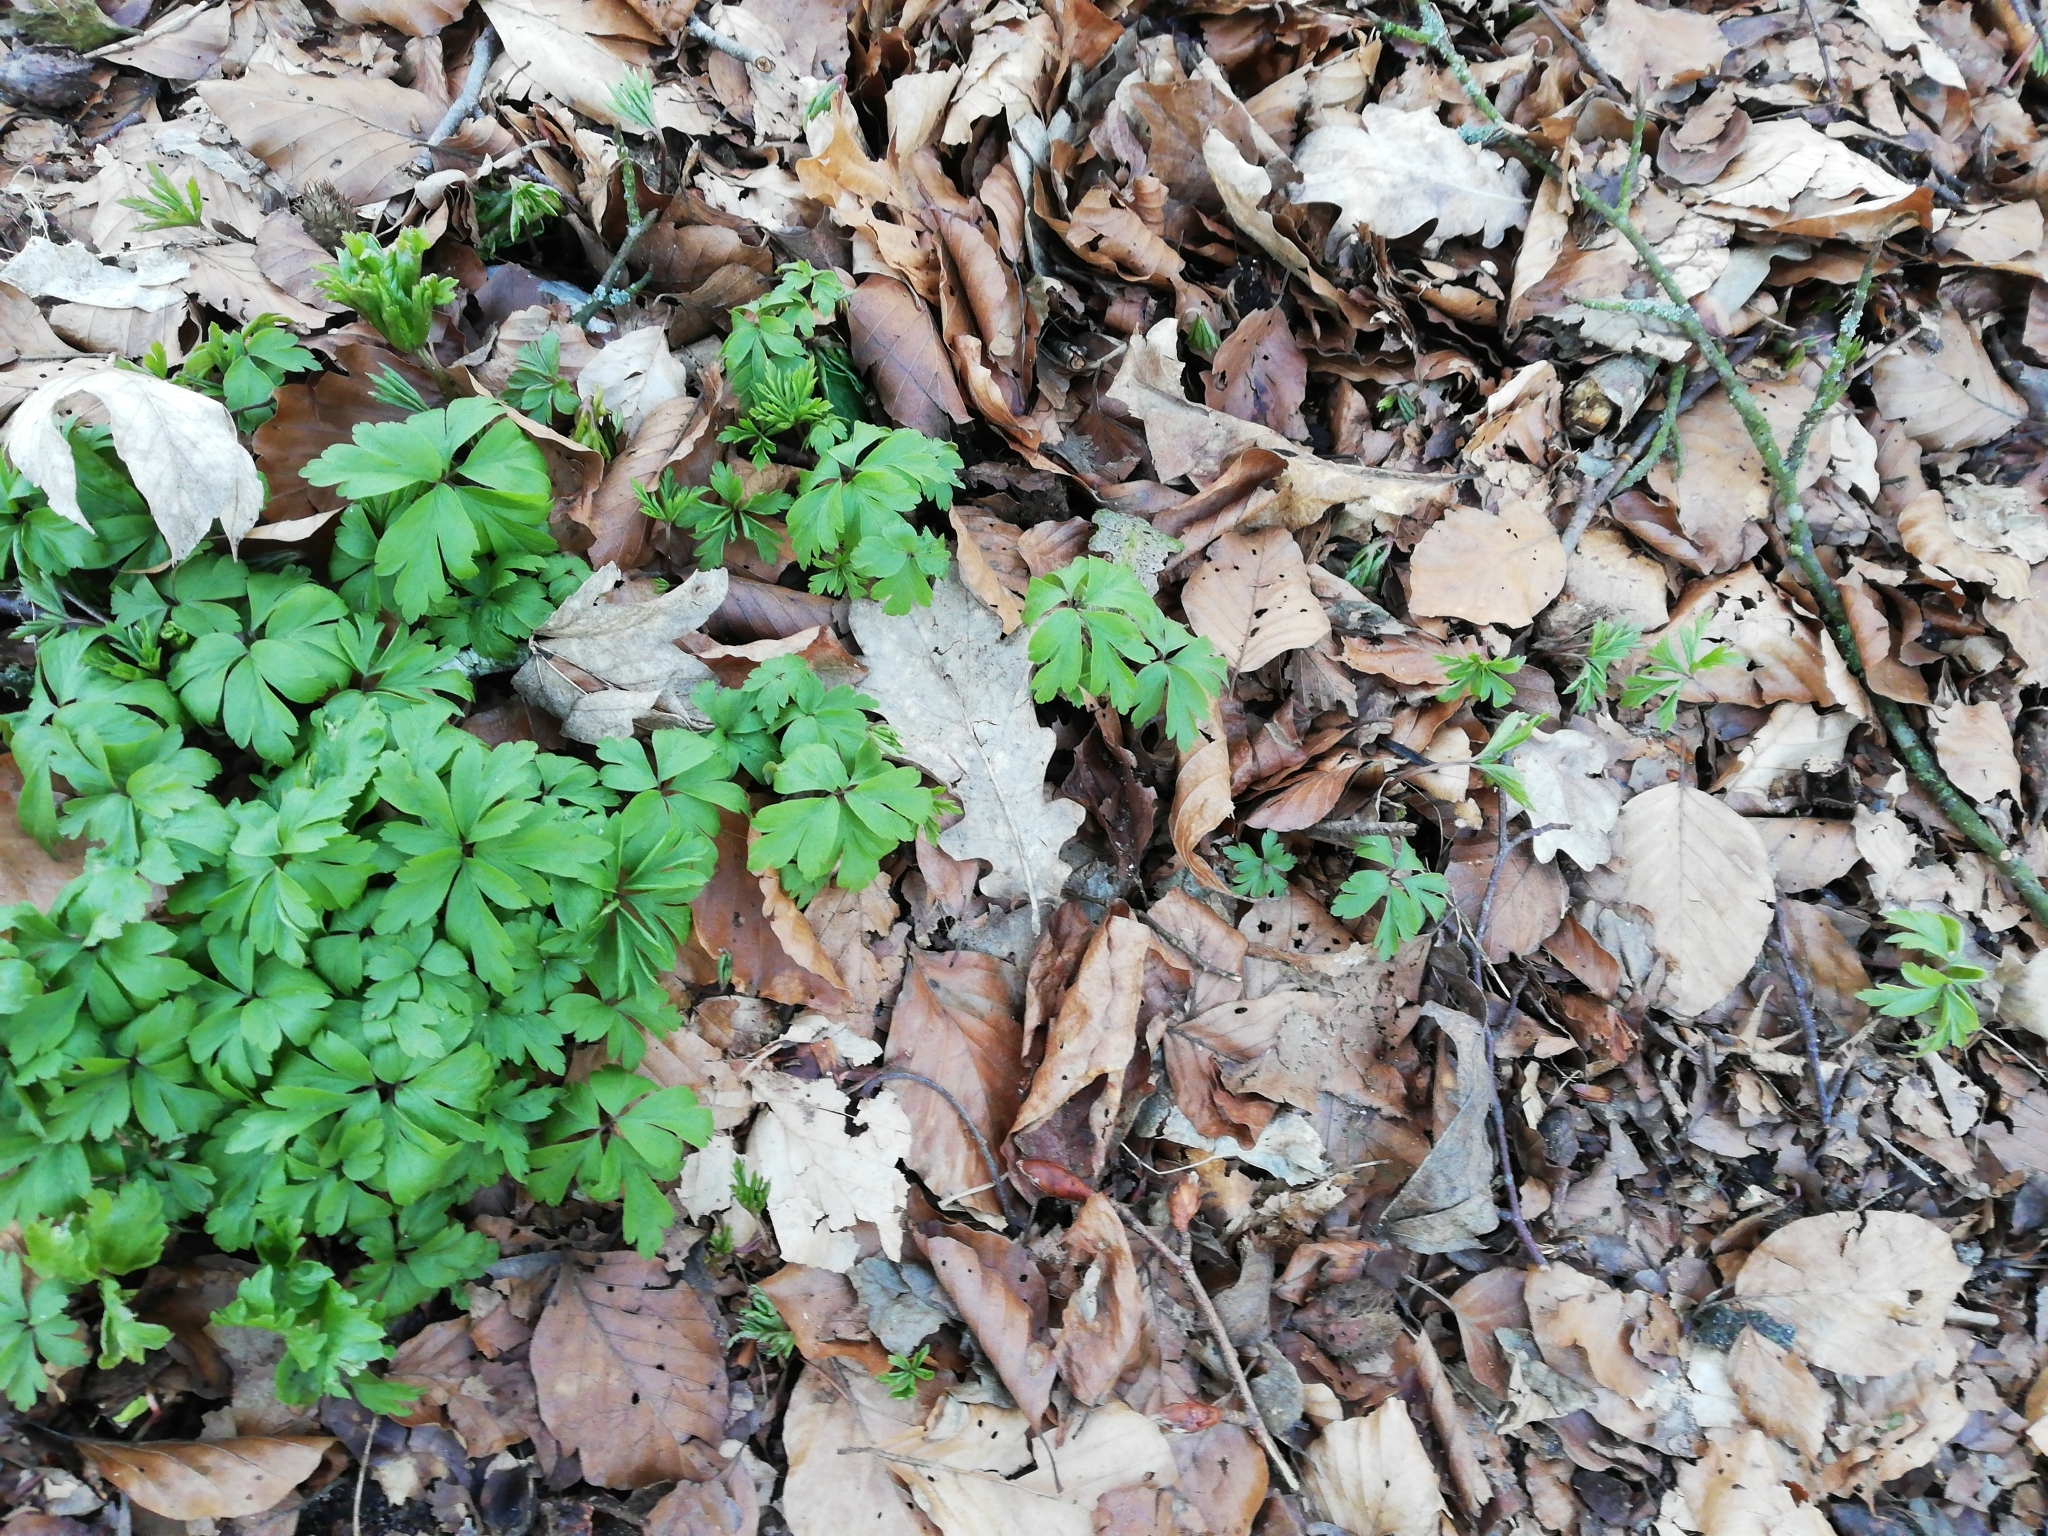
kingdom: Plantae
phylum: Tracheophyta
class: Magnoliopsida
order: Ranunculales
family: Ranunculaceae
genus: Anemone
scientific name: Anemone nemorosa
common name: Wood anemone
